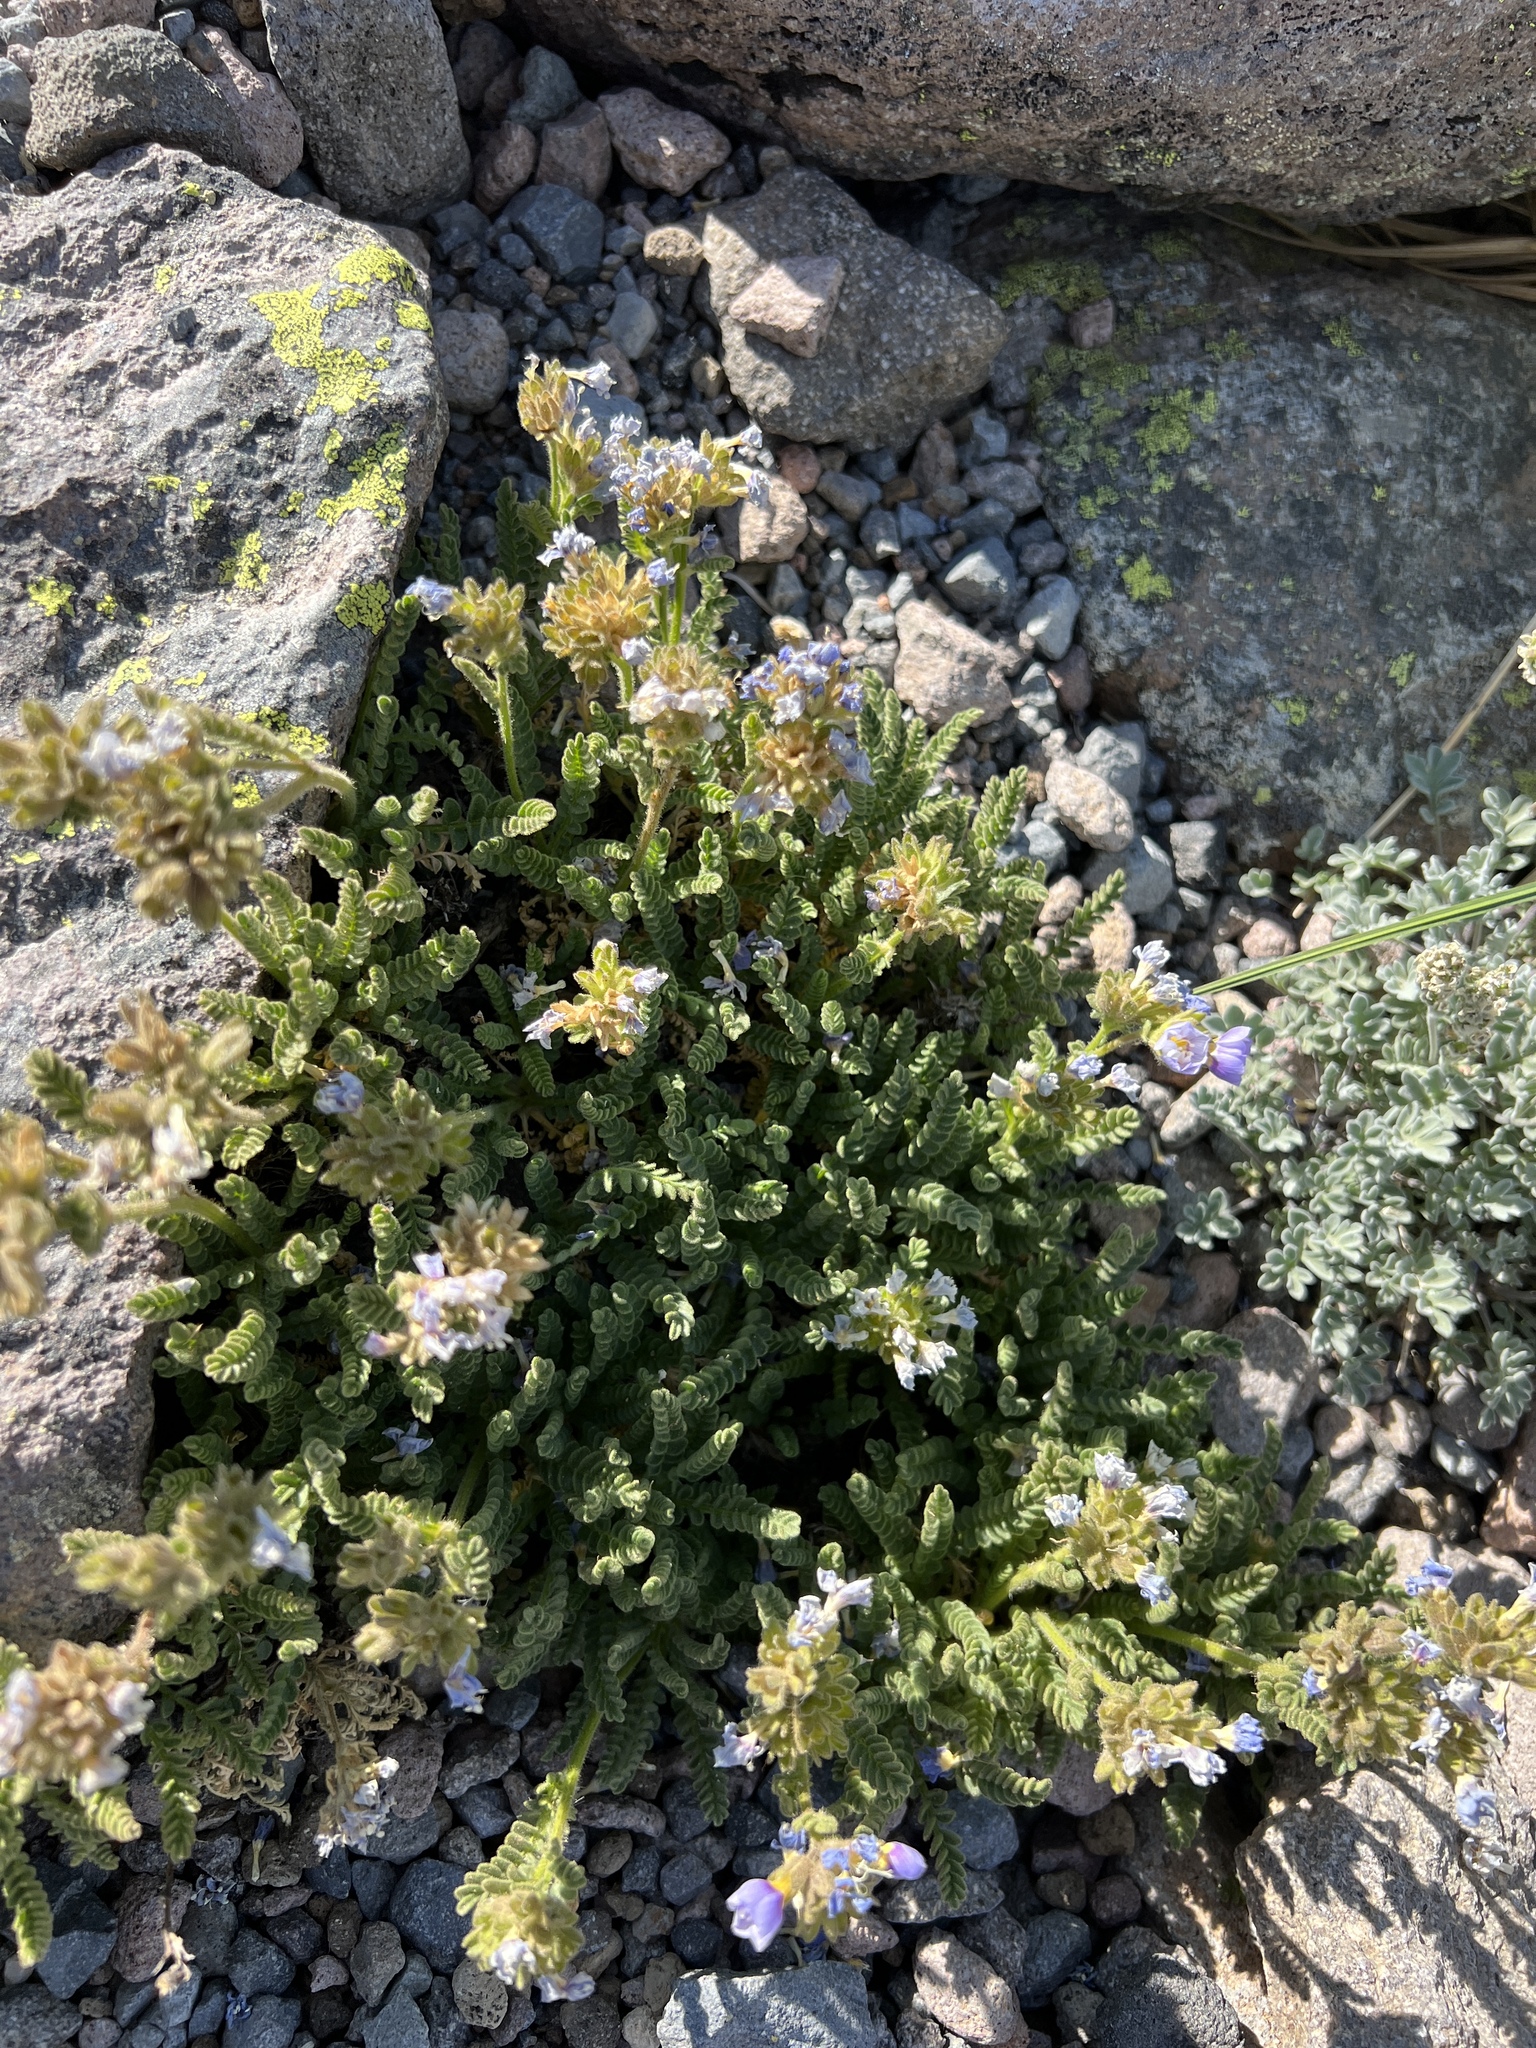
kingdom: Plantae
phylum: Tracheophyta
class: Magnoliopsida
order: Ericales
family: Polemoniaceae
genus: Polemonium
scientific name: Polemonium elegans
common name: Elegant jacob's-ladder
